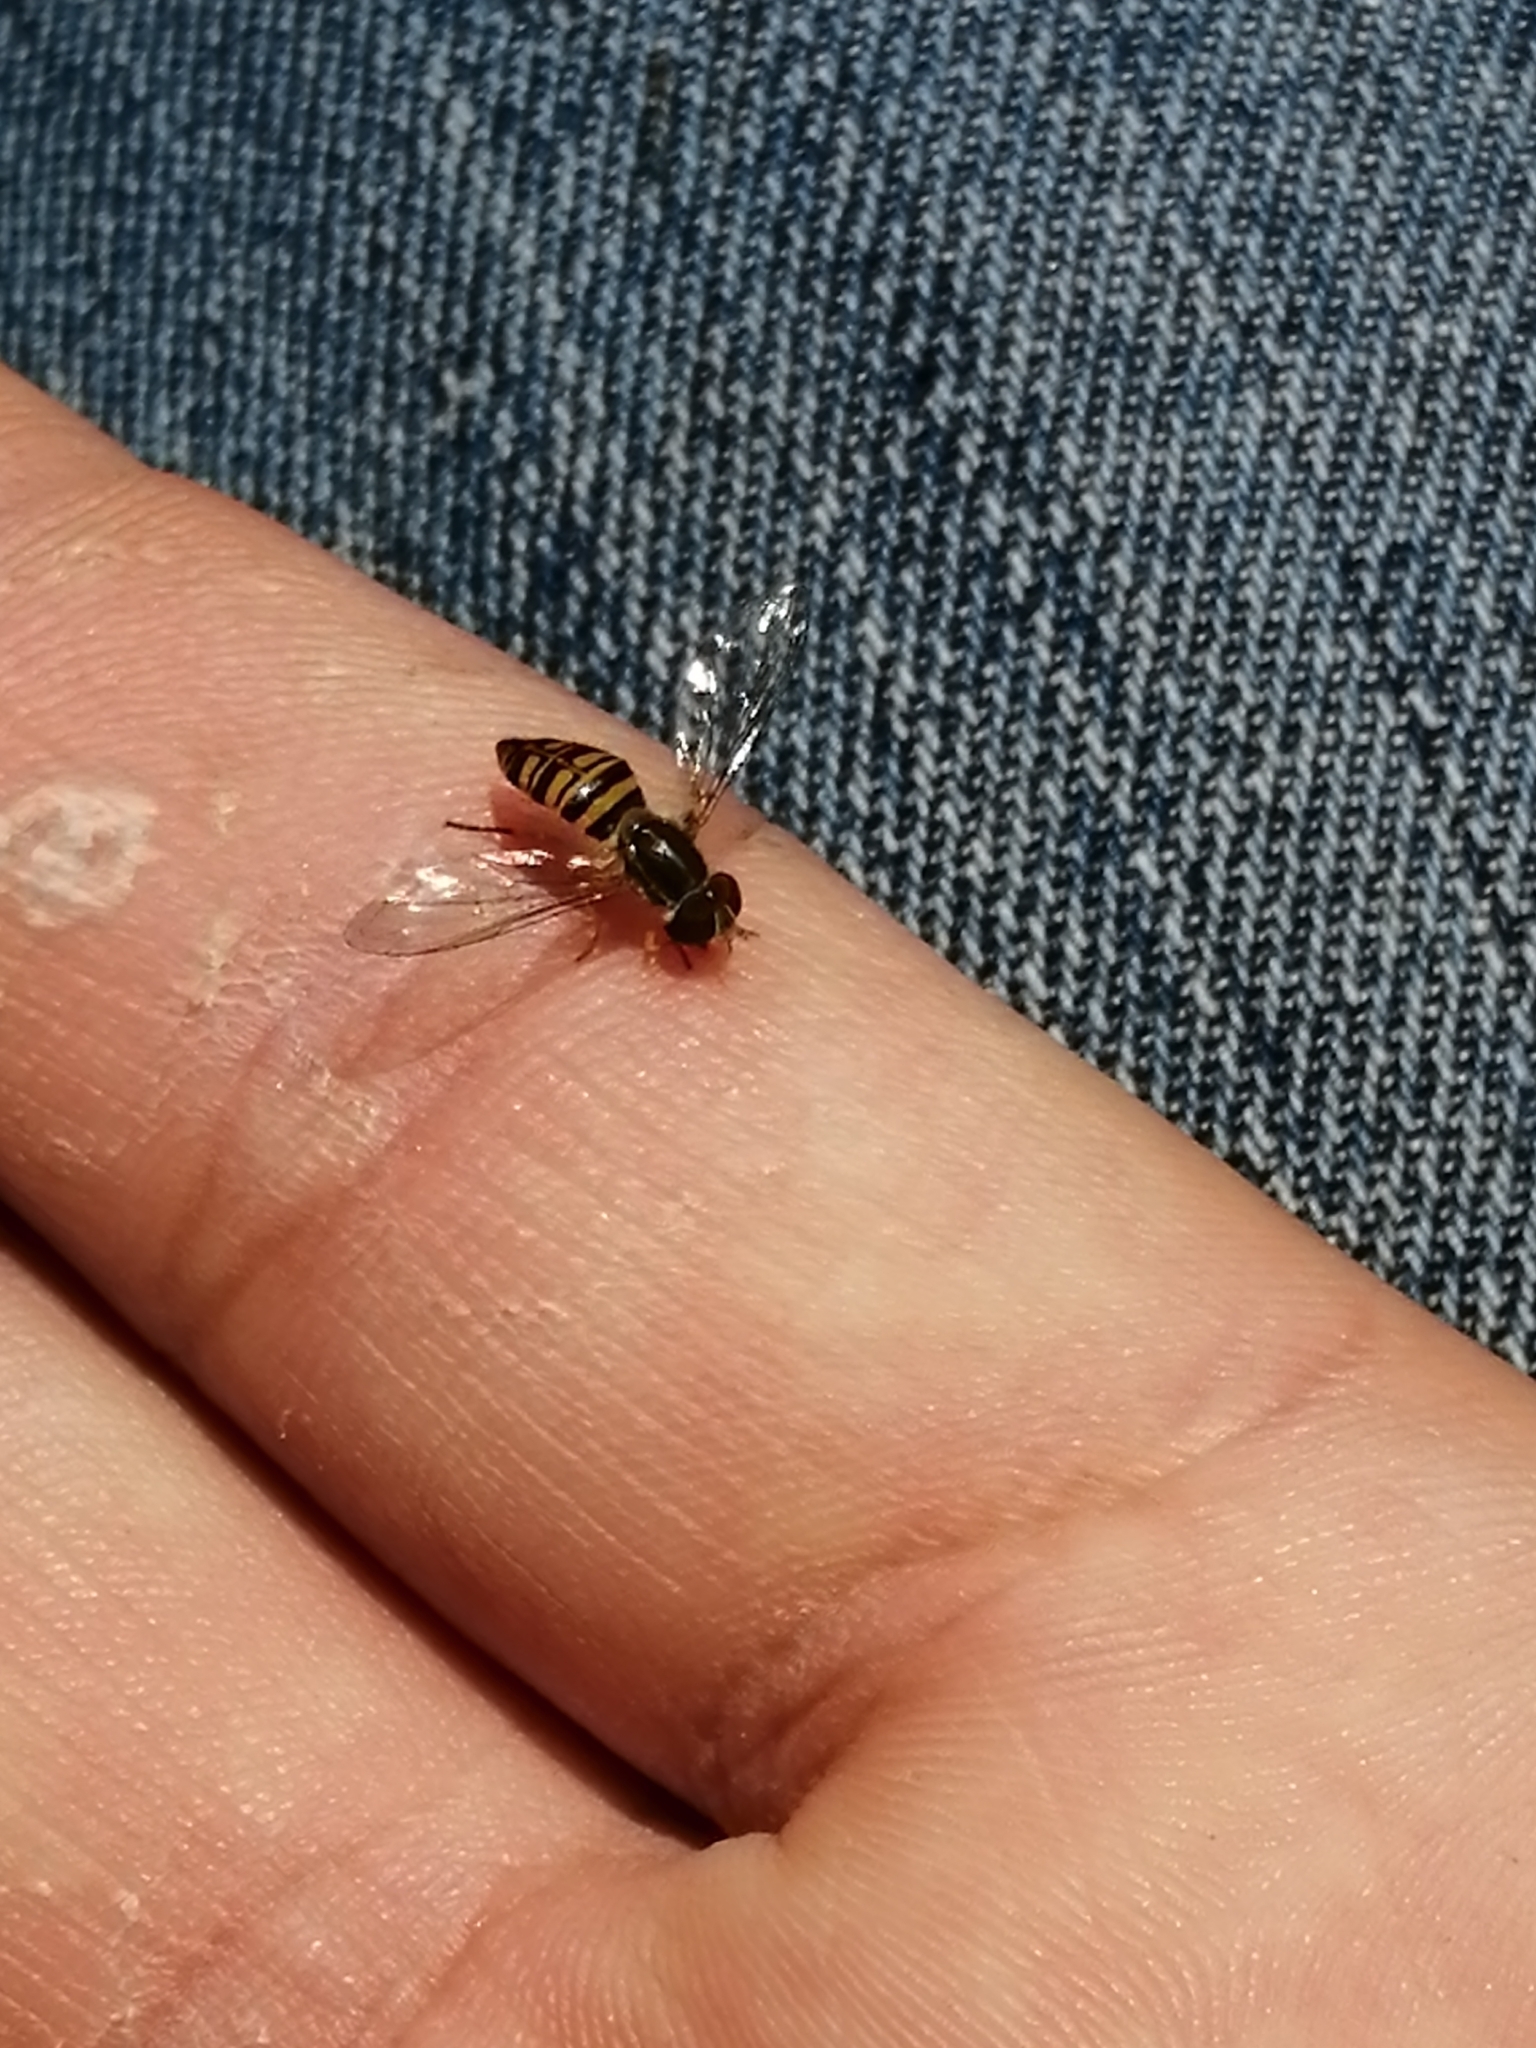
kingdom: Animalia
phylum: Arthropoda
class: Insecta
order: Diptera
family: Syrphidae
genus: Toxomerus
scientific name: Toxomerus politus
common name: Maize calligrapher
